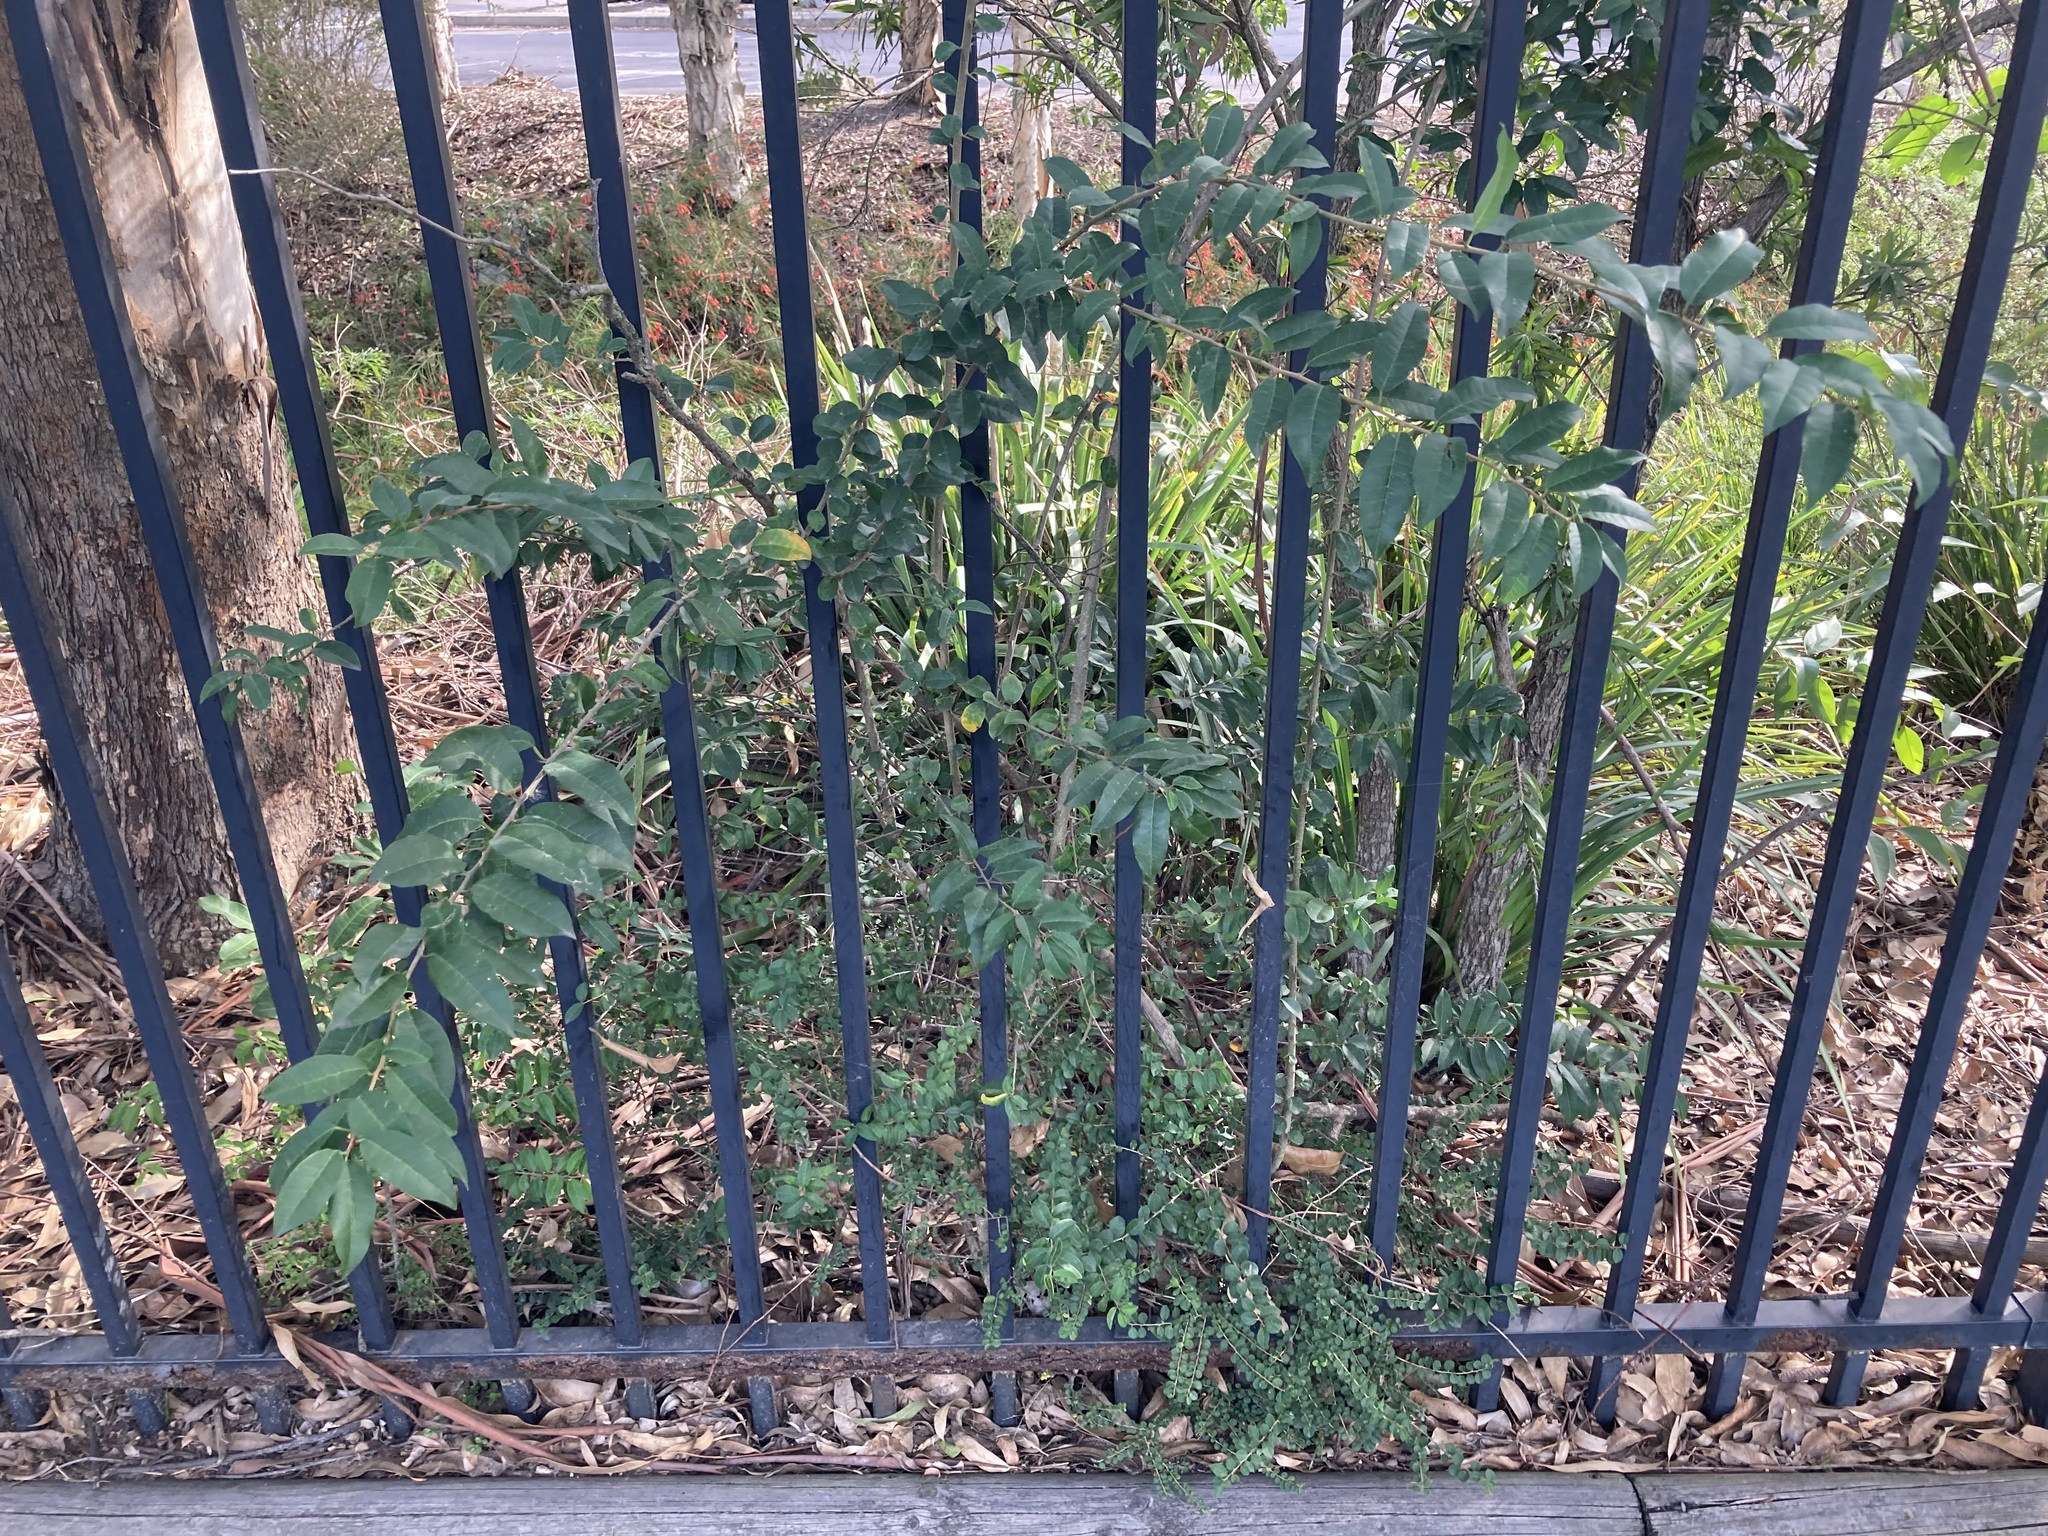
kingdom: Plantae
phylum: Tracheophyta
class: Magnoliopsida
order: Rosales
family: Moraceae
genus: Maclura
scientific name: Maclura cochinchinensis
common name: Cockspurthorn
